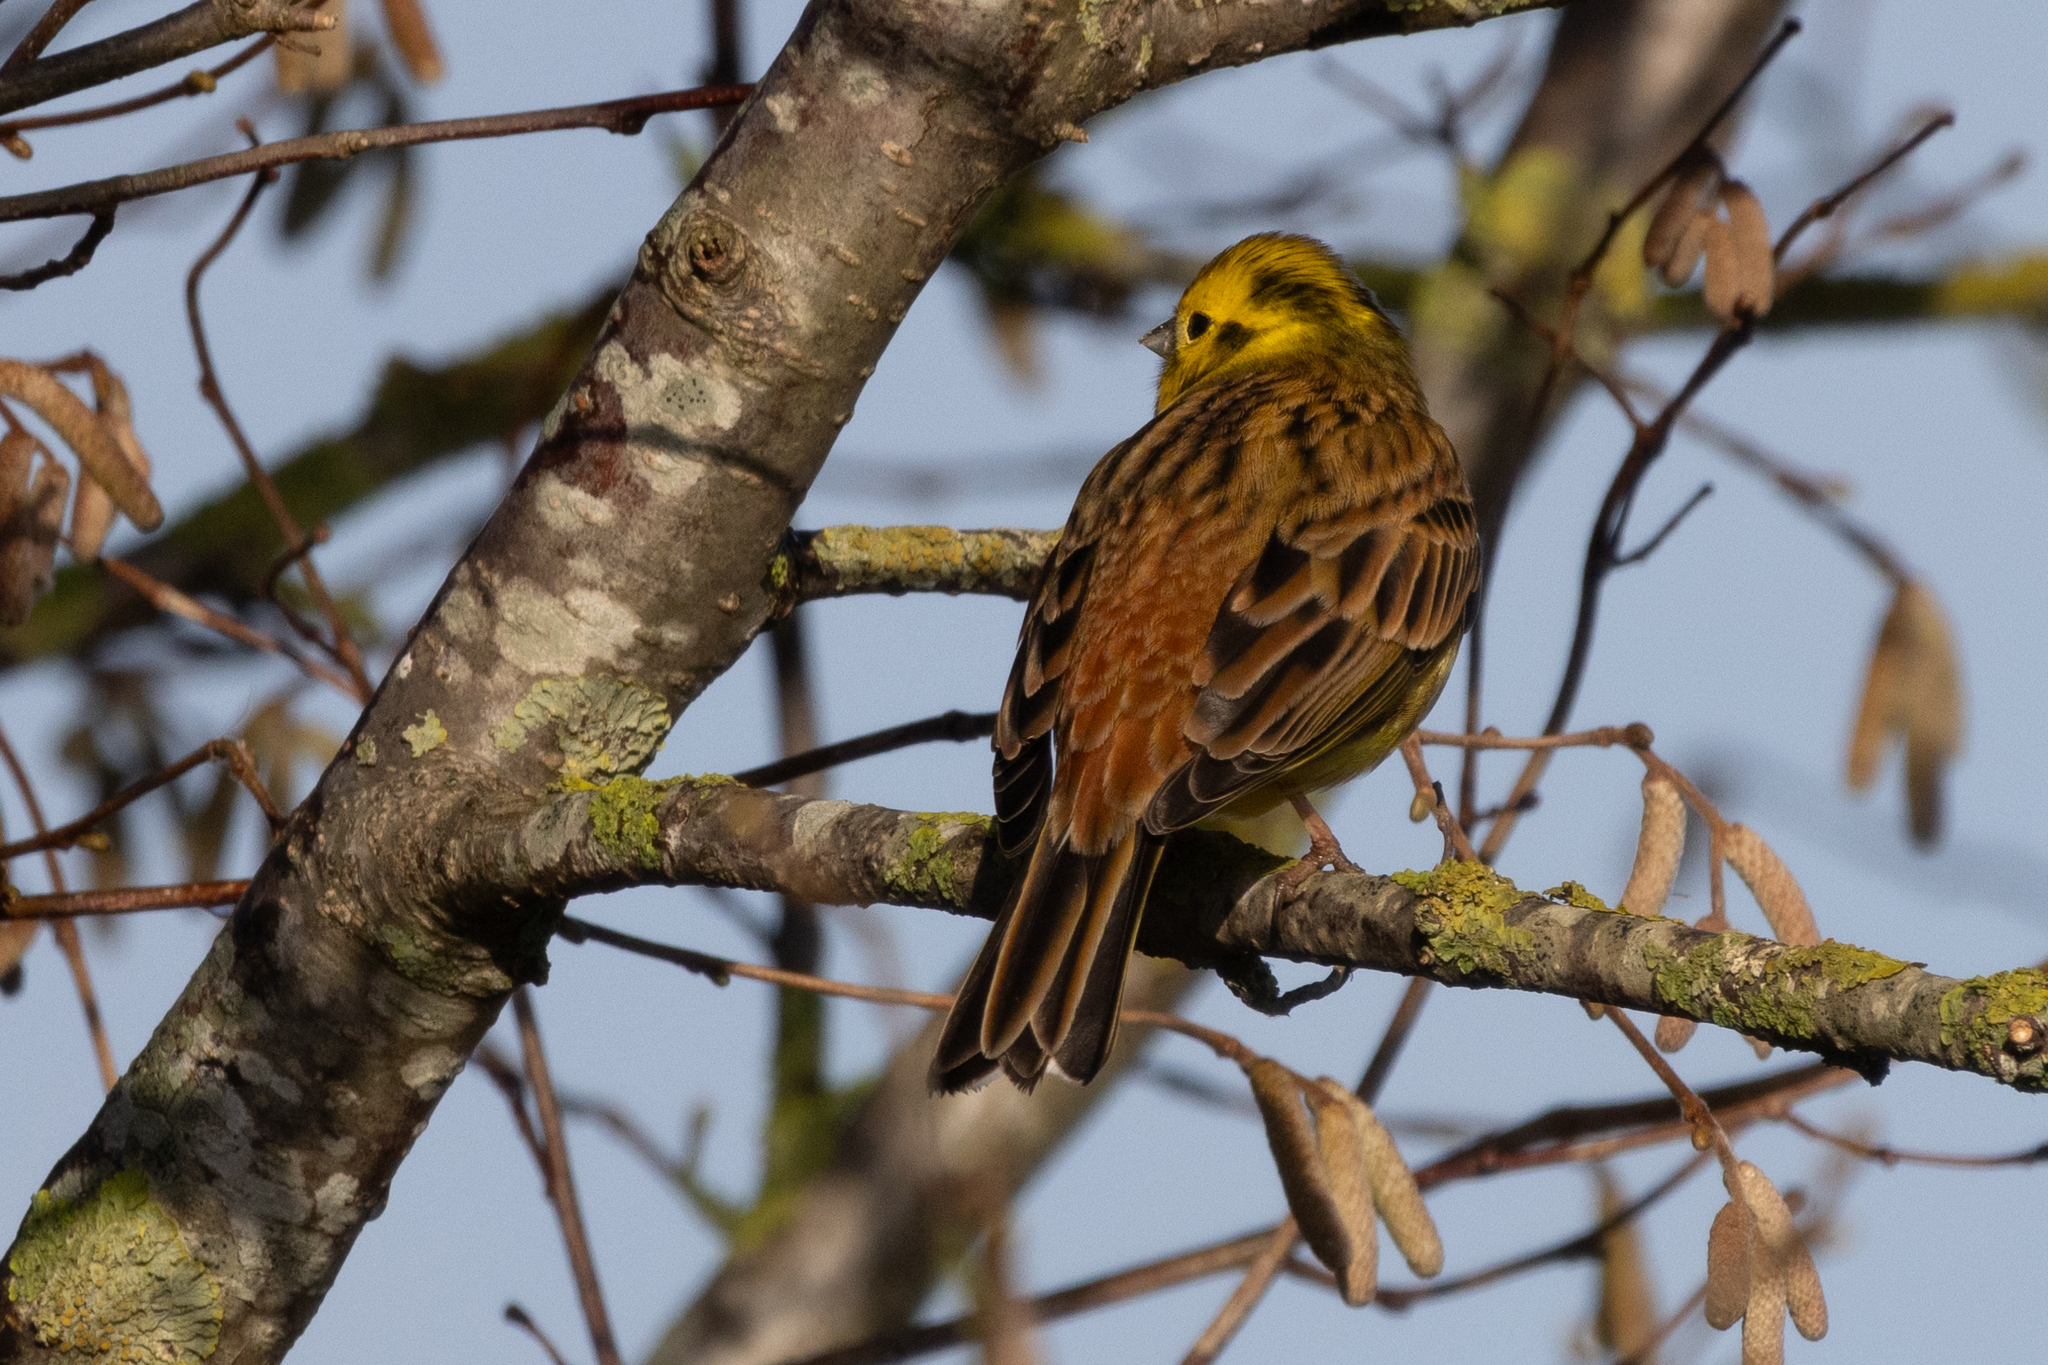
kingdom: Animalia
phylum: Chordata
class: Aves
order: Passeriformes
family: Emberizidae
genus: Emberiza
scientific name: Emberiza citrinella
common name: Yellowhammer
